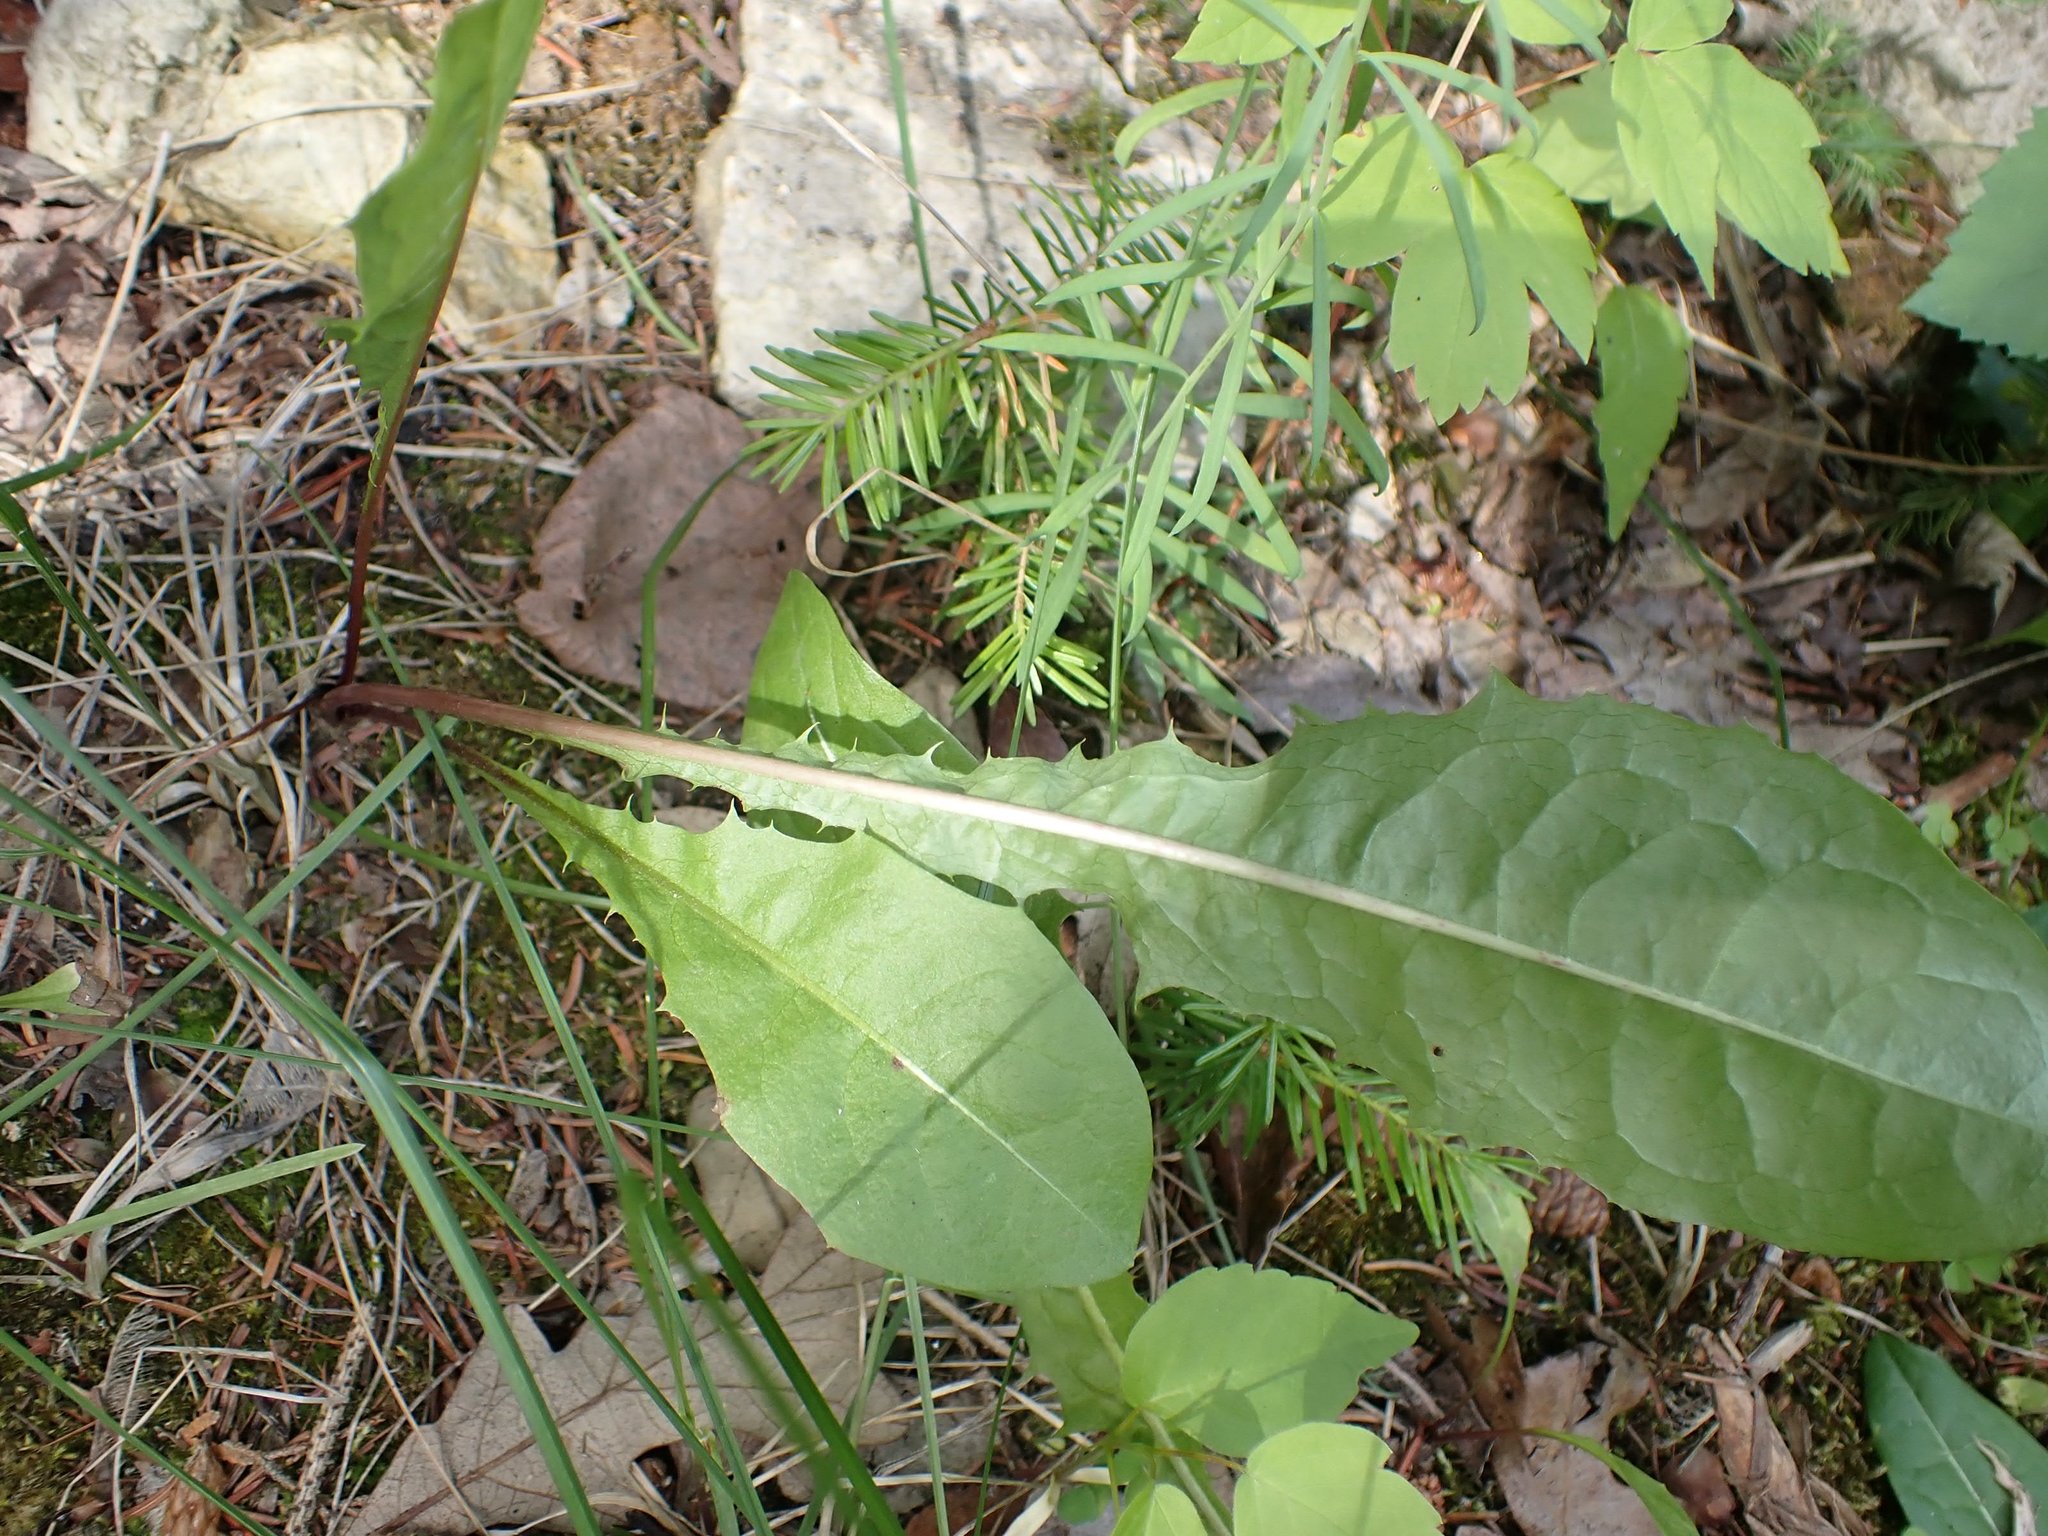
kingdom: Plantae
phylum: Tracheophyta
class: Magnoliopsida
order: Asterales
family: Asteraceae
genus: Taraxacum
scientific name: Taraxacum officinale
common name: Common dandelion
